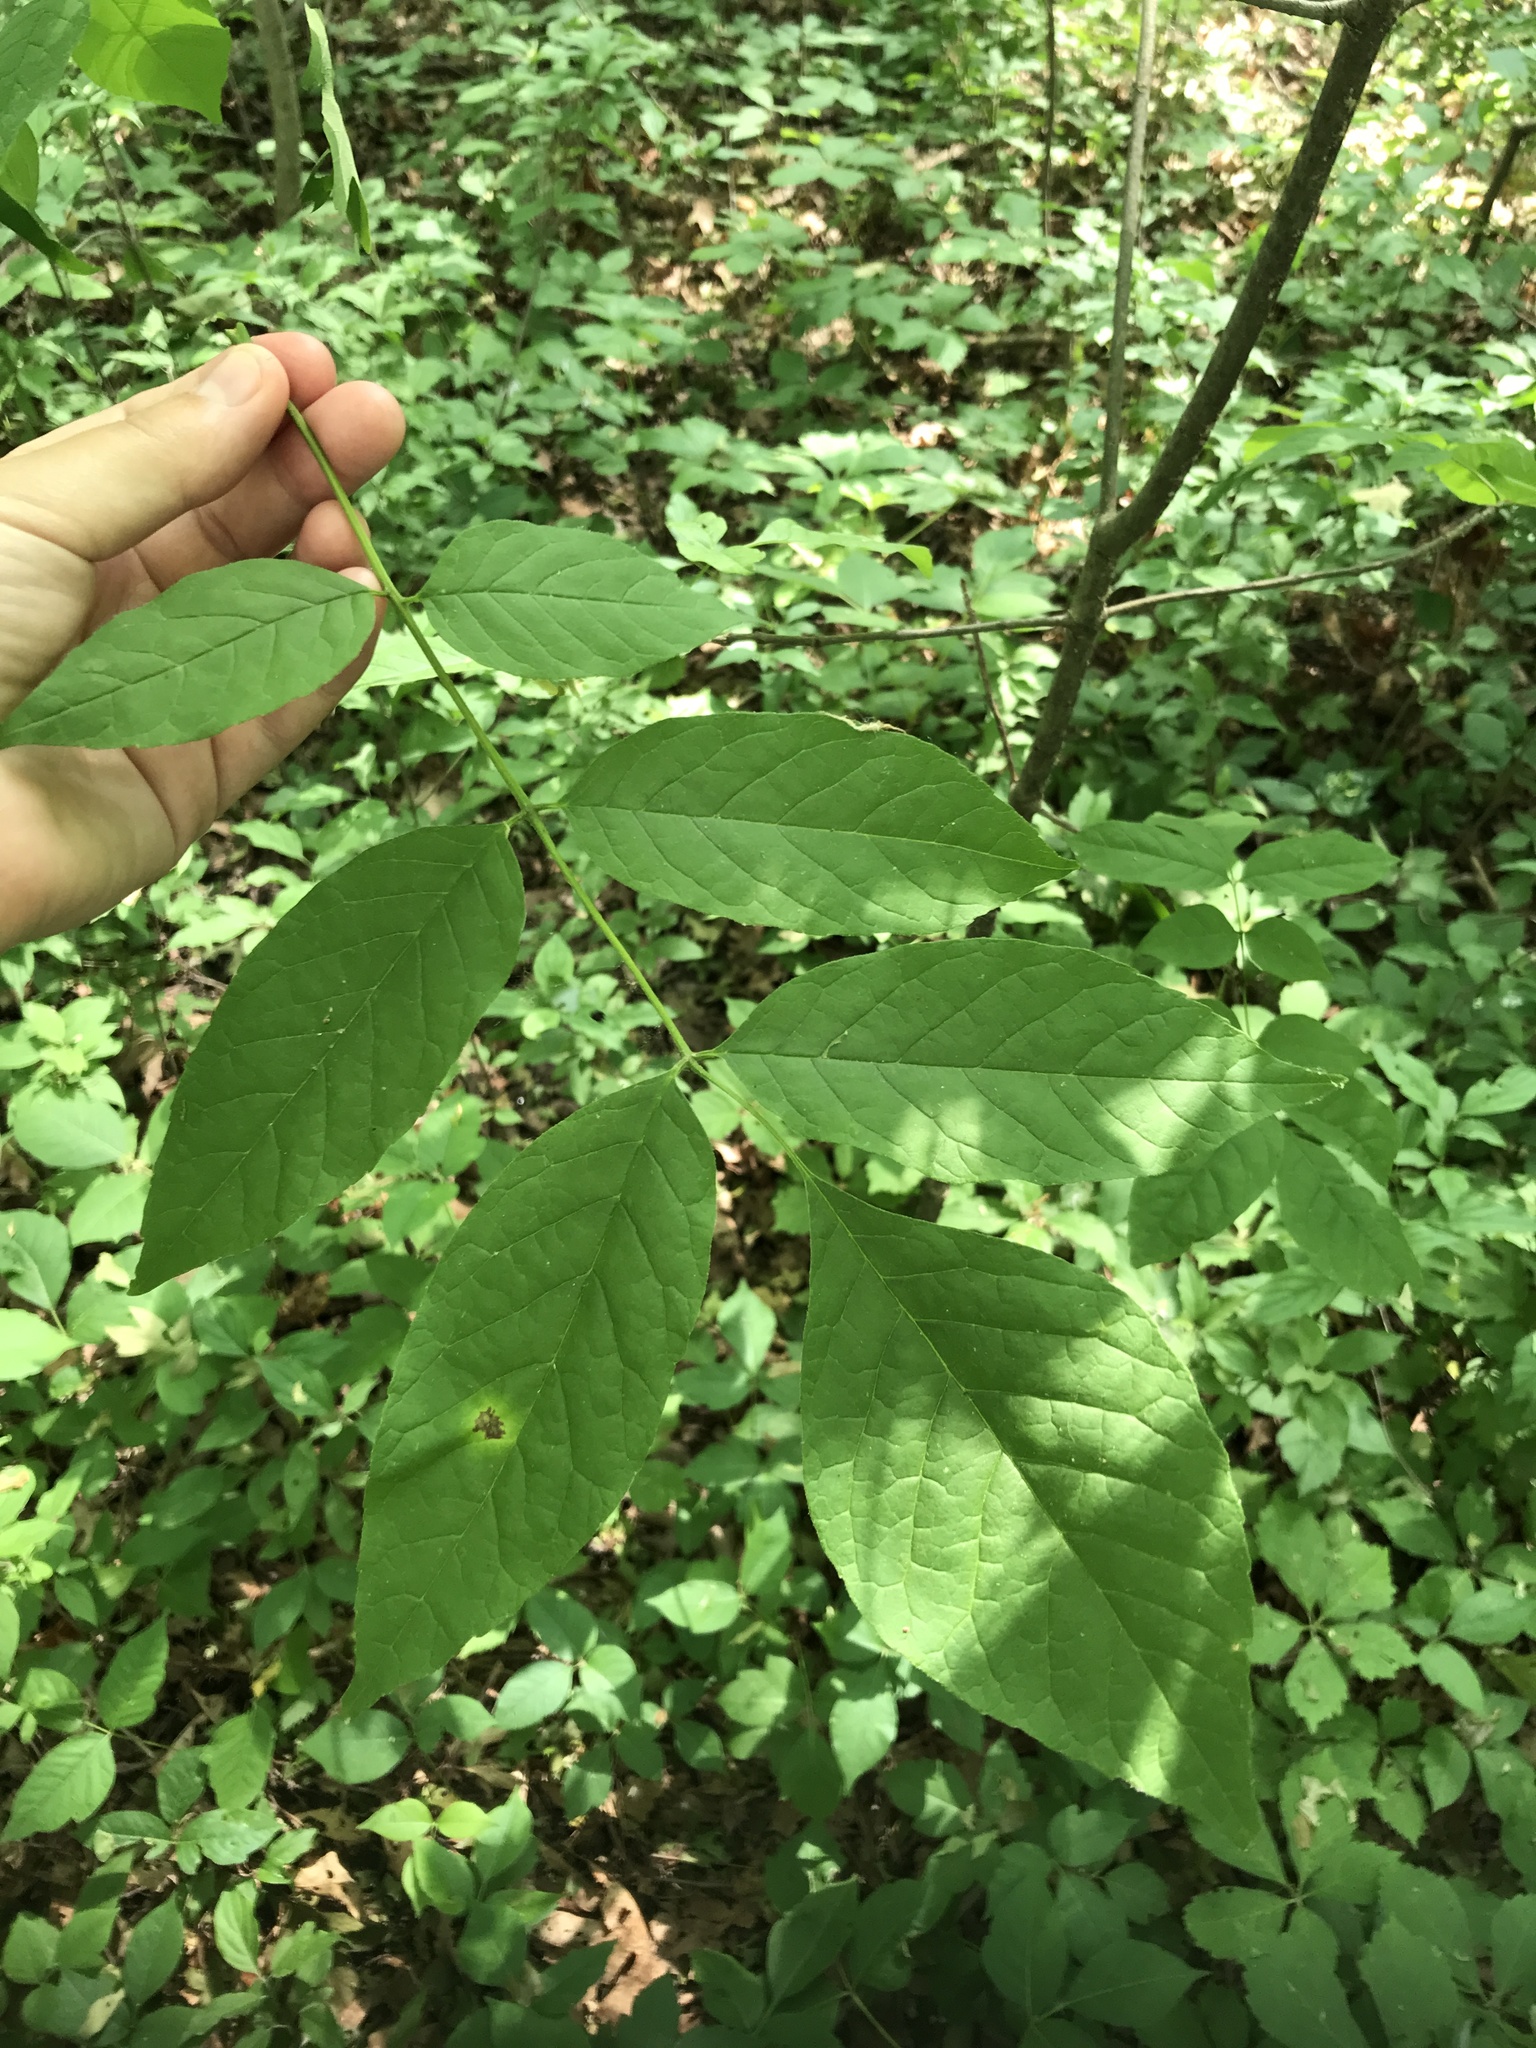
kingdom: Plantae
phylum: Tracheophyta
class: Magnoliopsida
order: Lamiales
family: Oleaceae
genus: Fraxinus
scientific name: Fraxinus nigra
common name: Black ash
